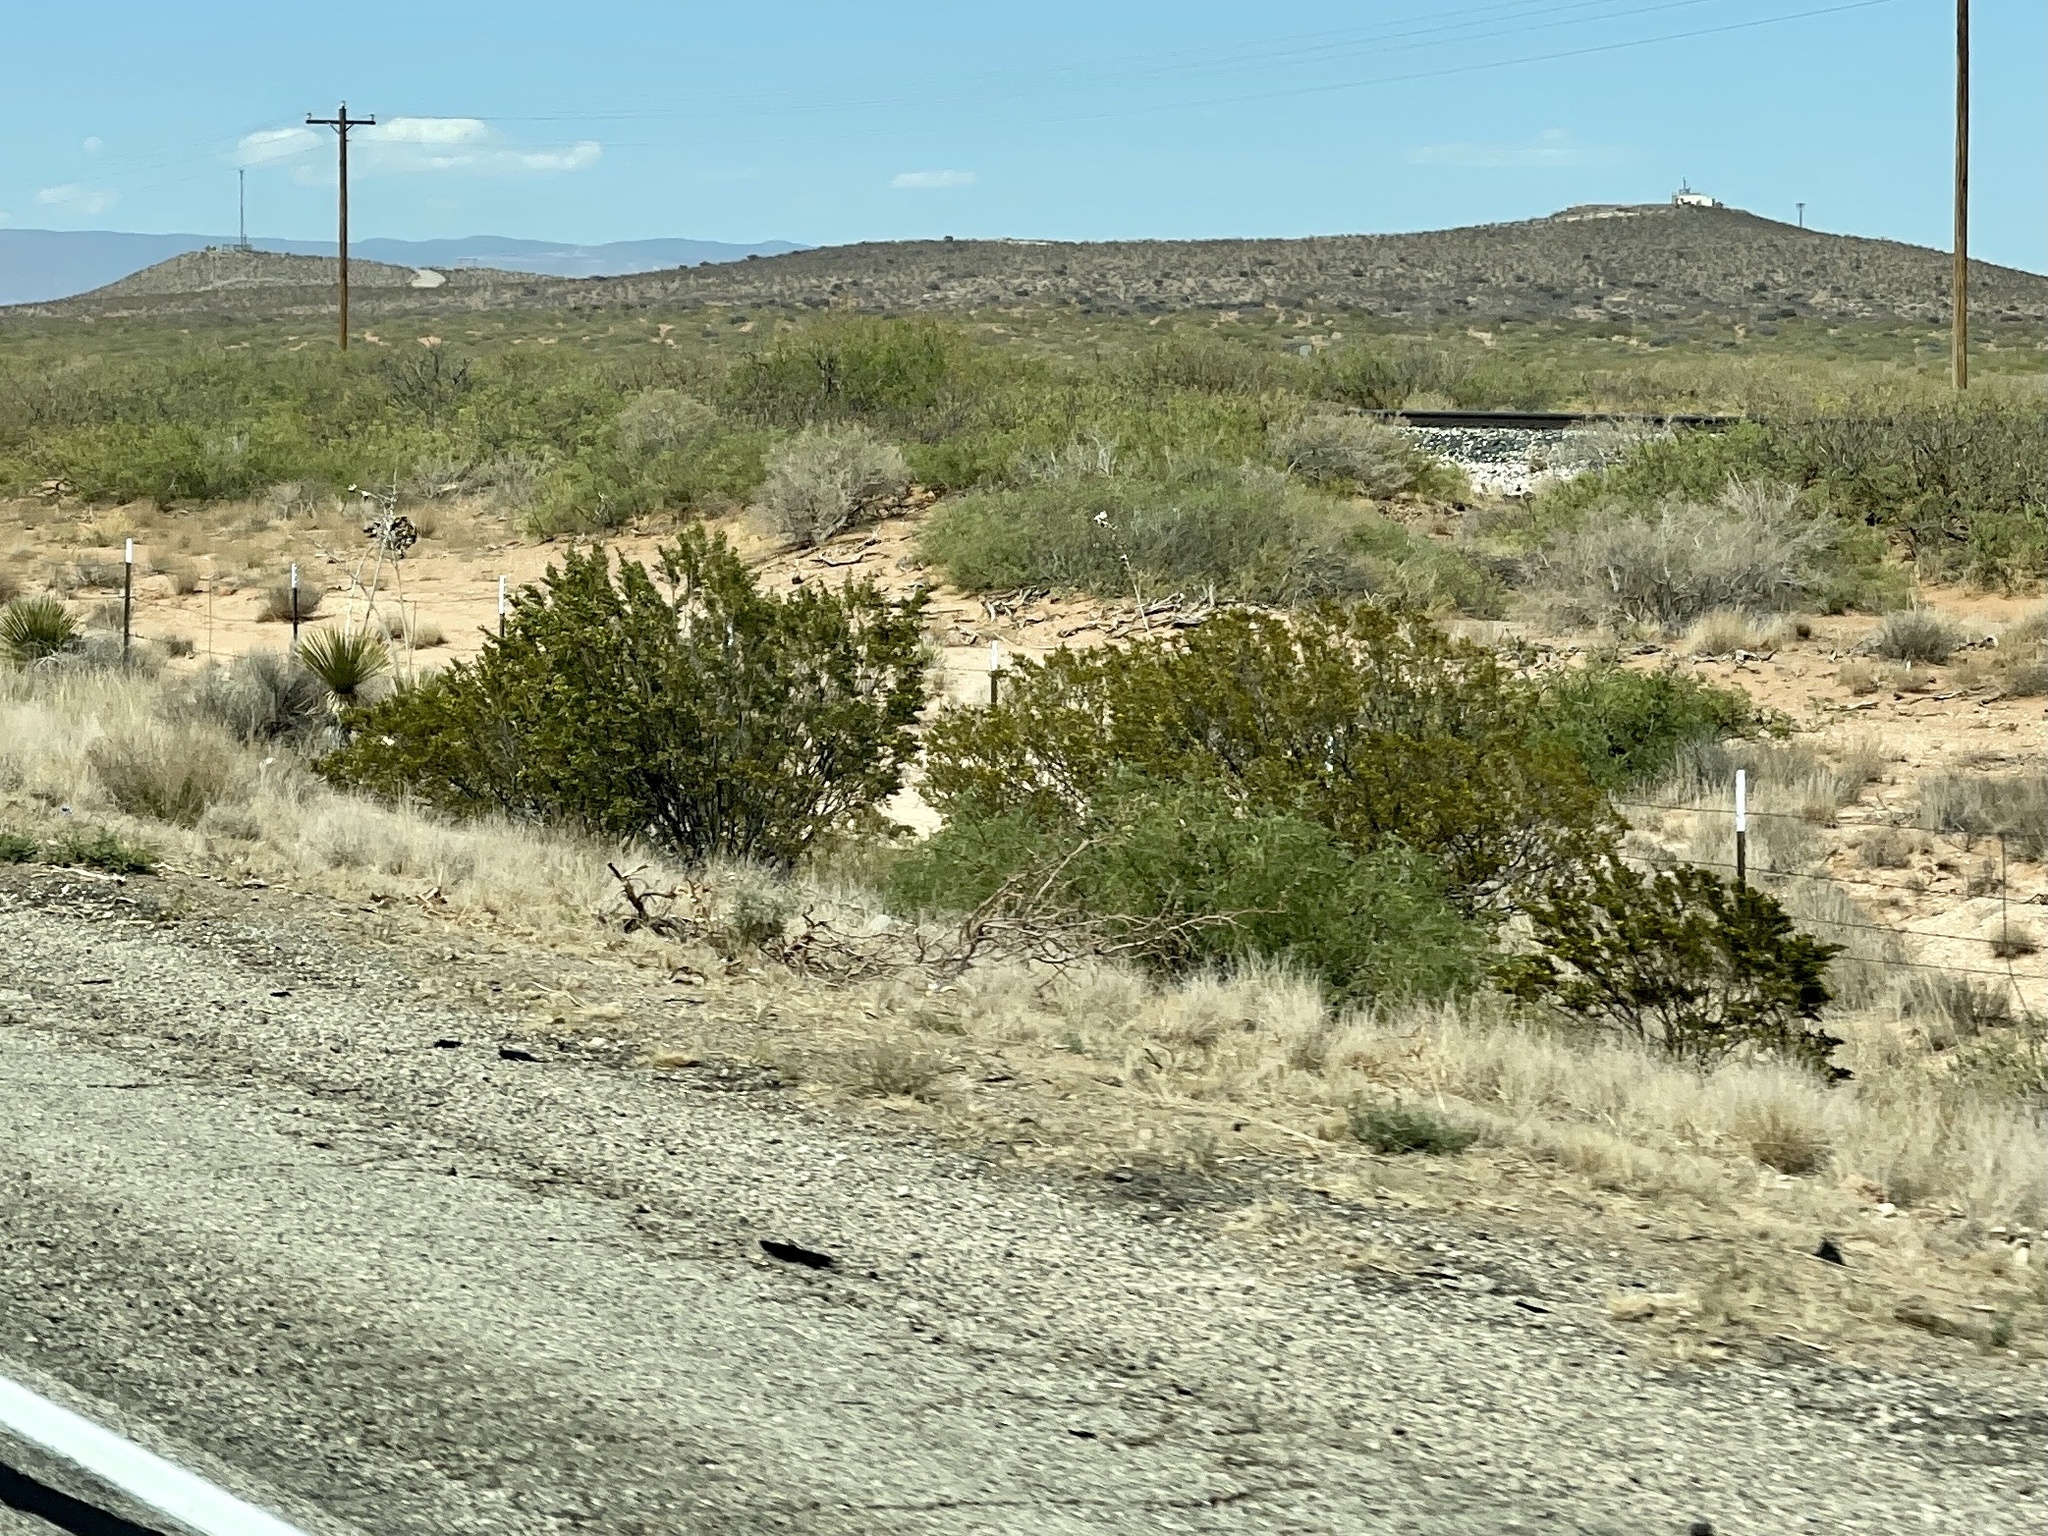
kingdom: Plantae
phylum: Tracheophyta
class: Magnoliopsida
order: Zygophyllales
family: Zygophyllaceae
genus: Larrea
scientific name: Larrea tridentata
